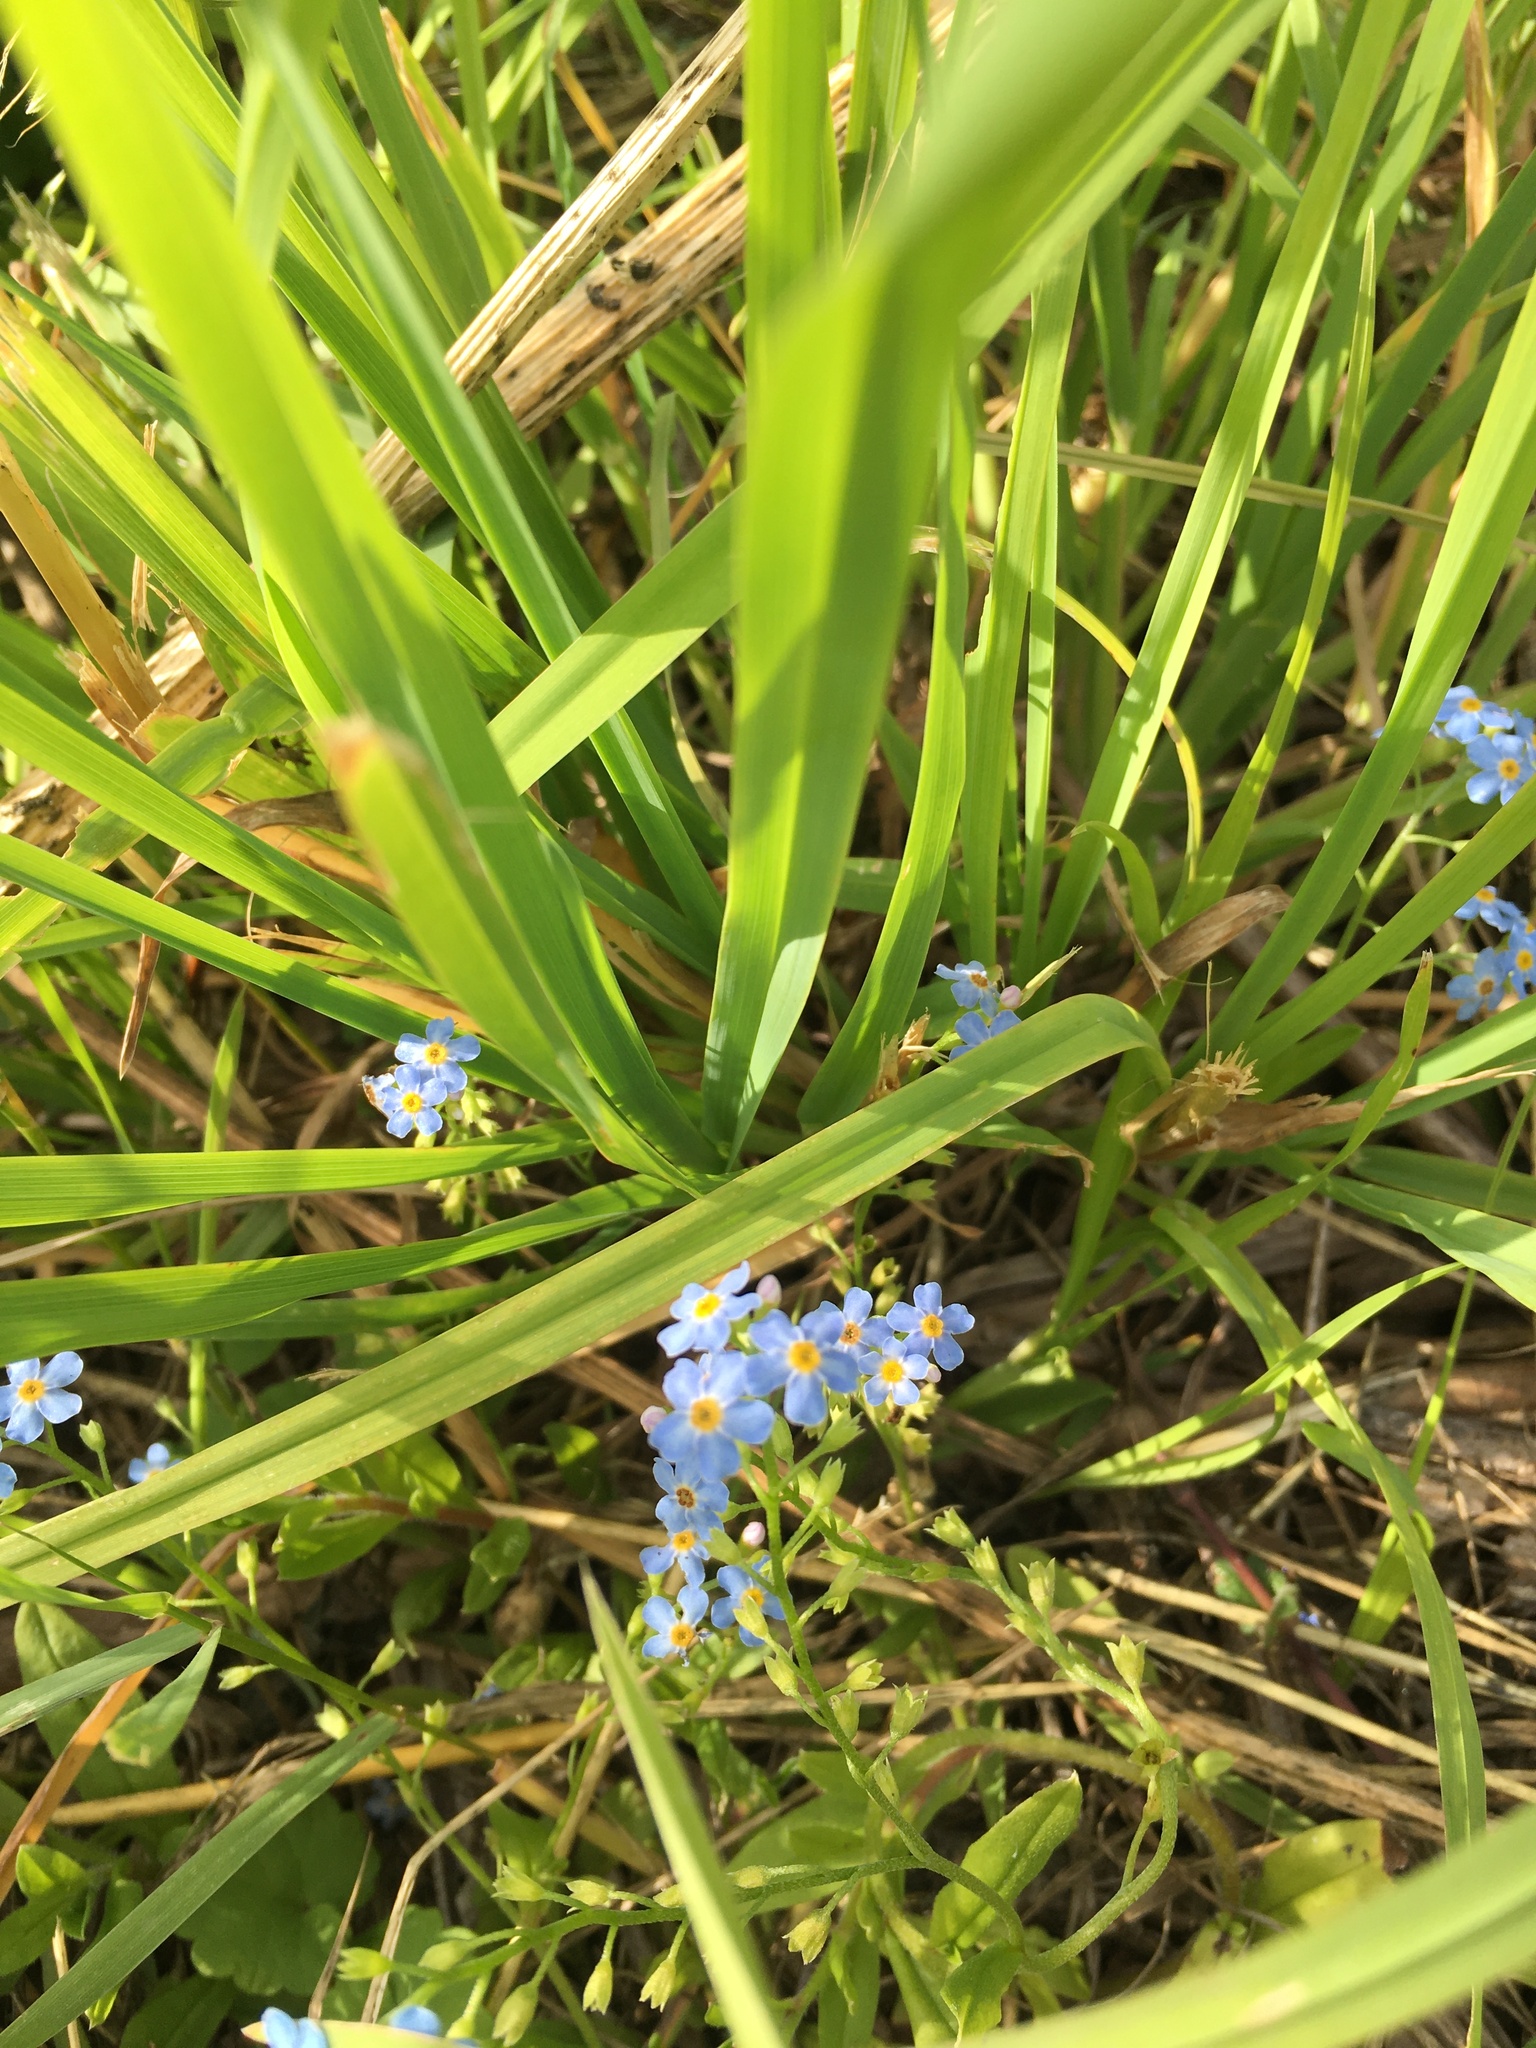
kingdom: Plantae
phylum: Tracheophyta
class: Magnoliopsida
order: Boraginales
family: Boraginaceae
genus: Myosotis
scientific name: Myosotis scorpioides
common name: Water forget-me-not
